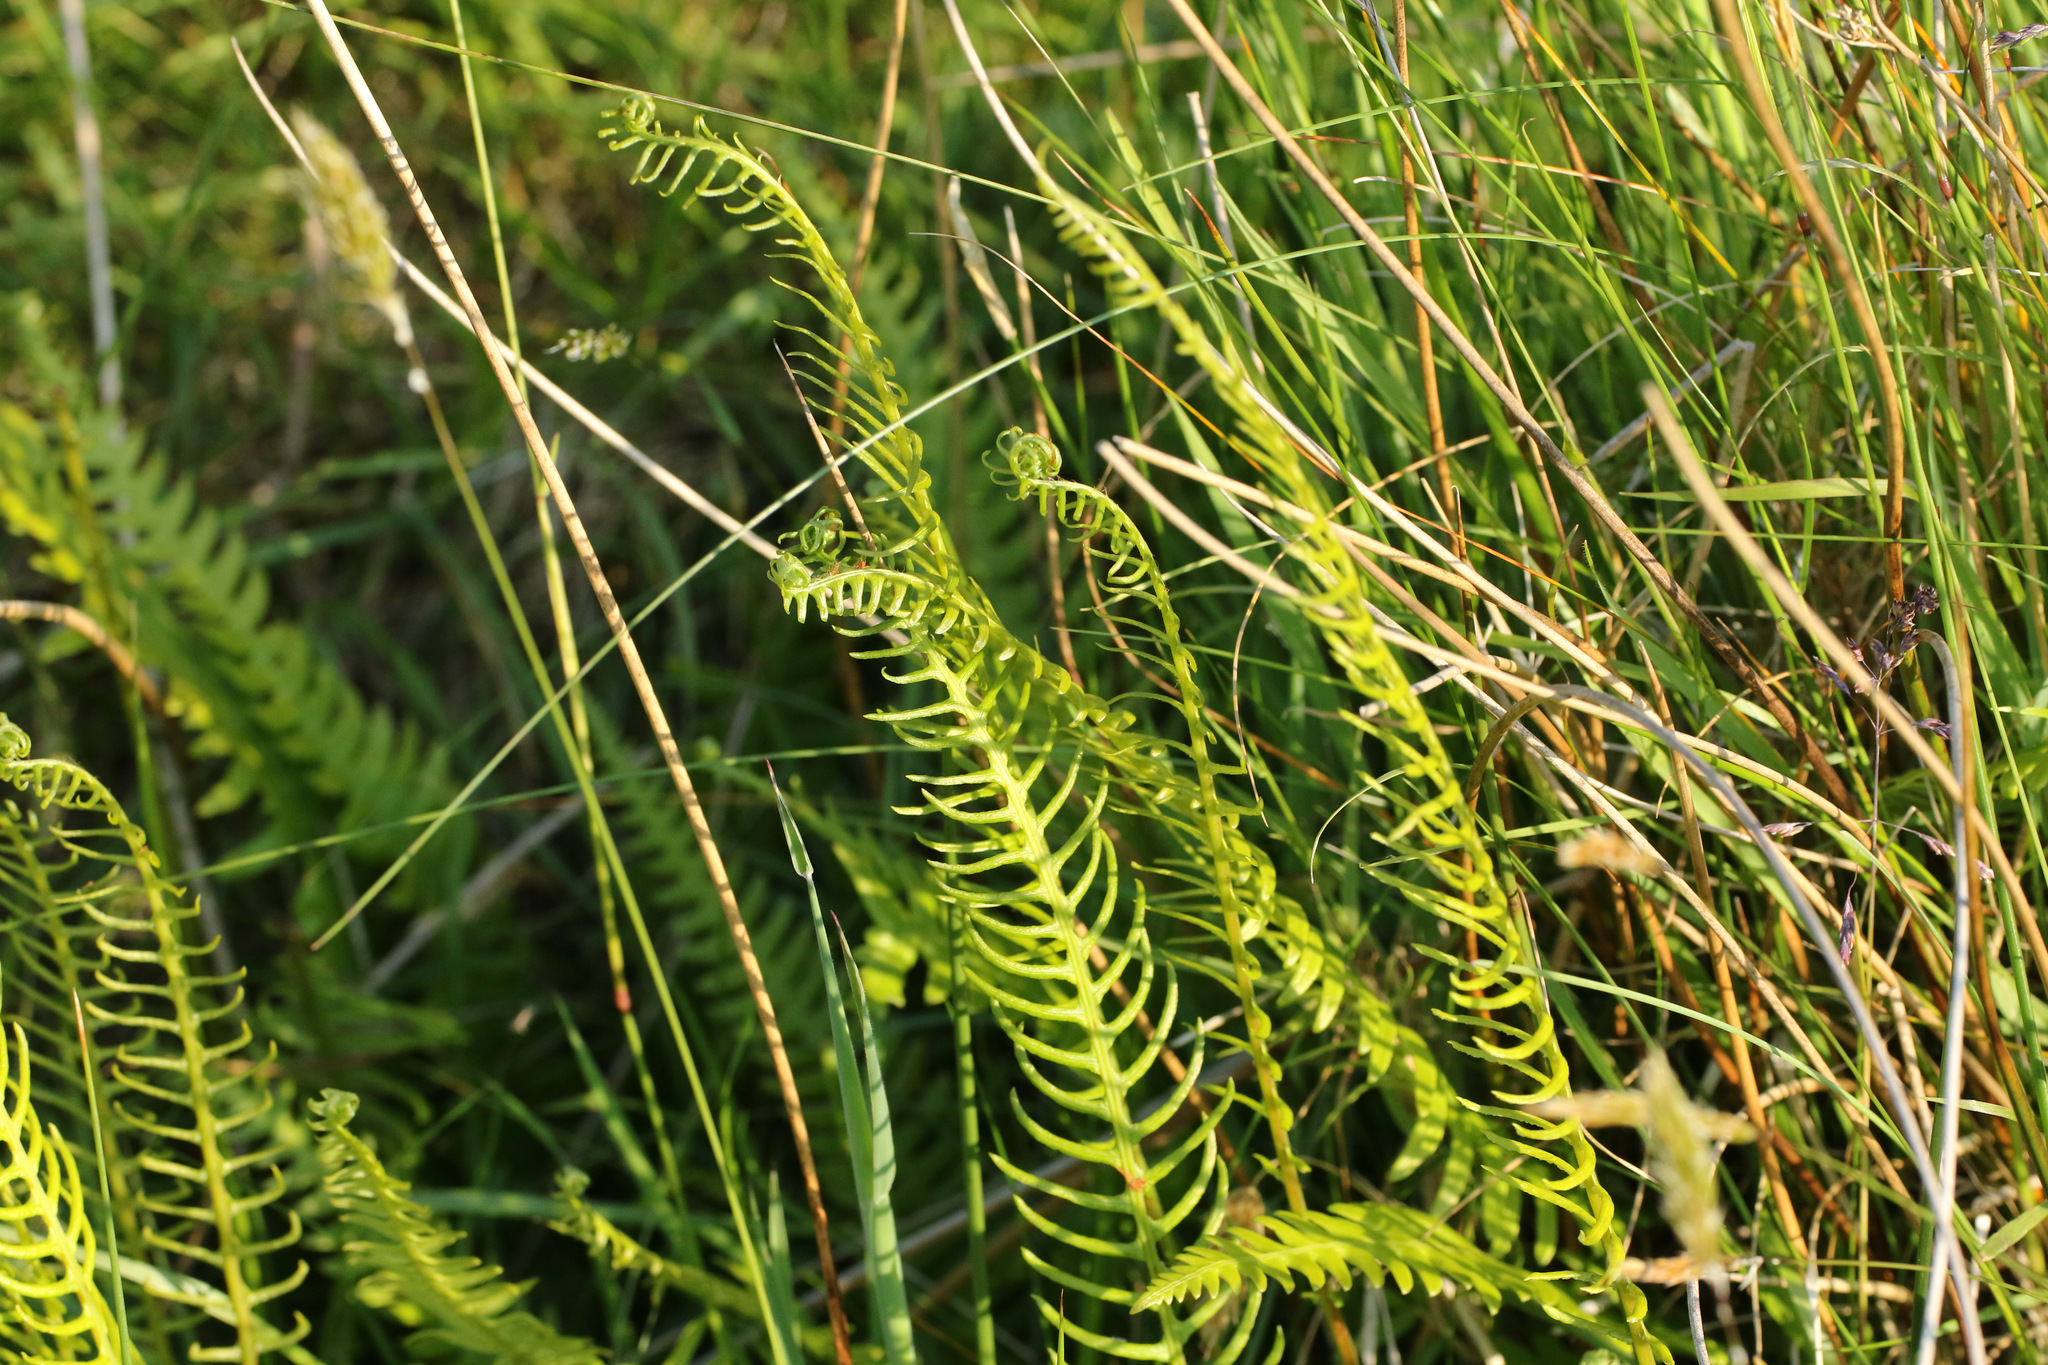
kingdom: Plantae
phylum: Tracheophyta
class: Polypodiopsida
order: Polypodiales
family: Blechnaceae
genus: Struthiopteris
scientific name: Struthiopteris spicant
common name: Deer fern
